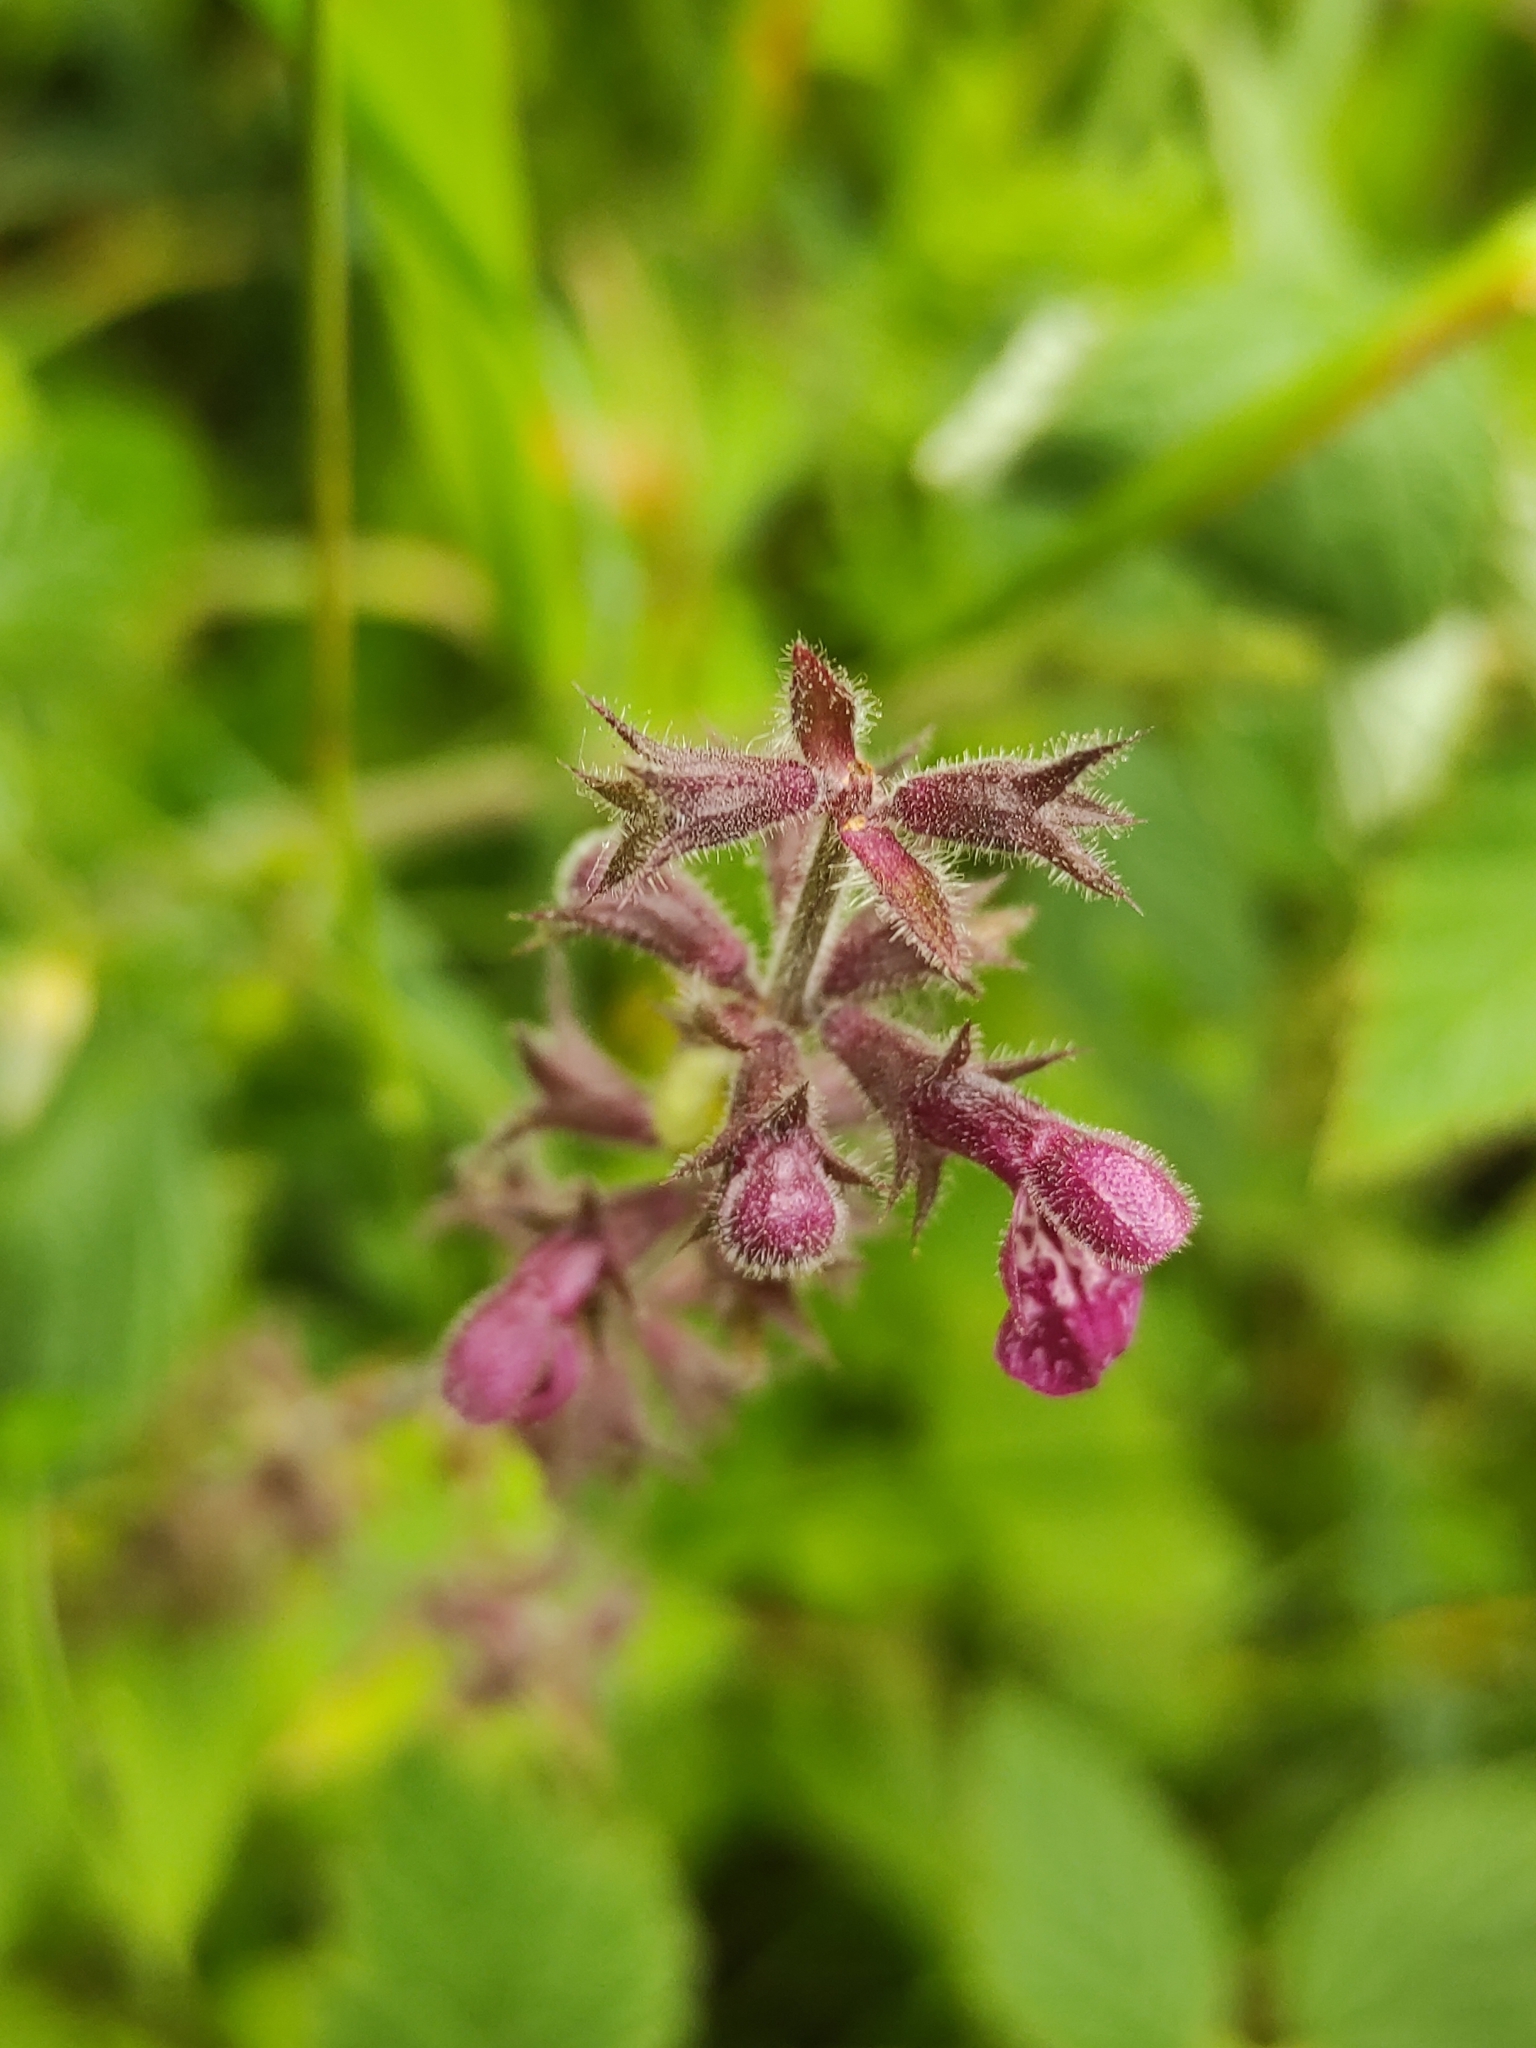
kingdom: Plantae
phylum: Tracheophyta
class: Magnoliopsida
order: Lamiales
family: Lamiaceae
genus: Stachys
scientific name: Stachys sylvatica
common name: Hedge woundwort
